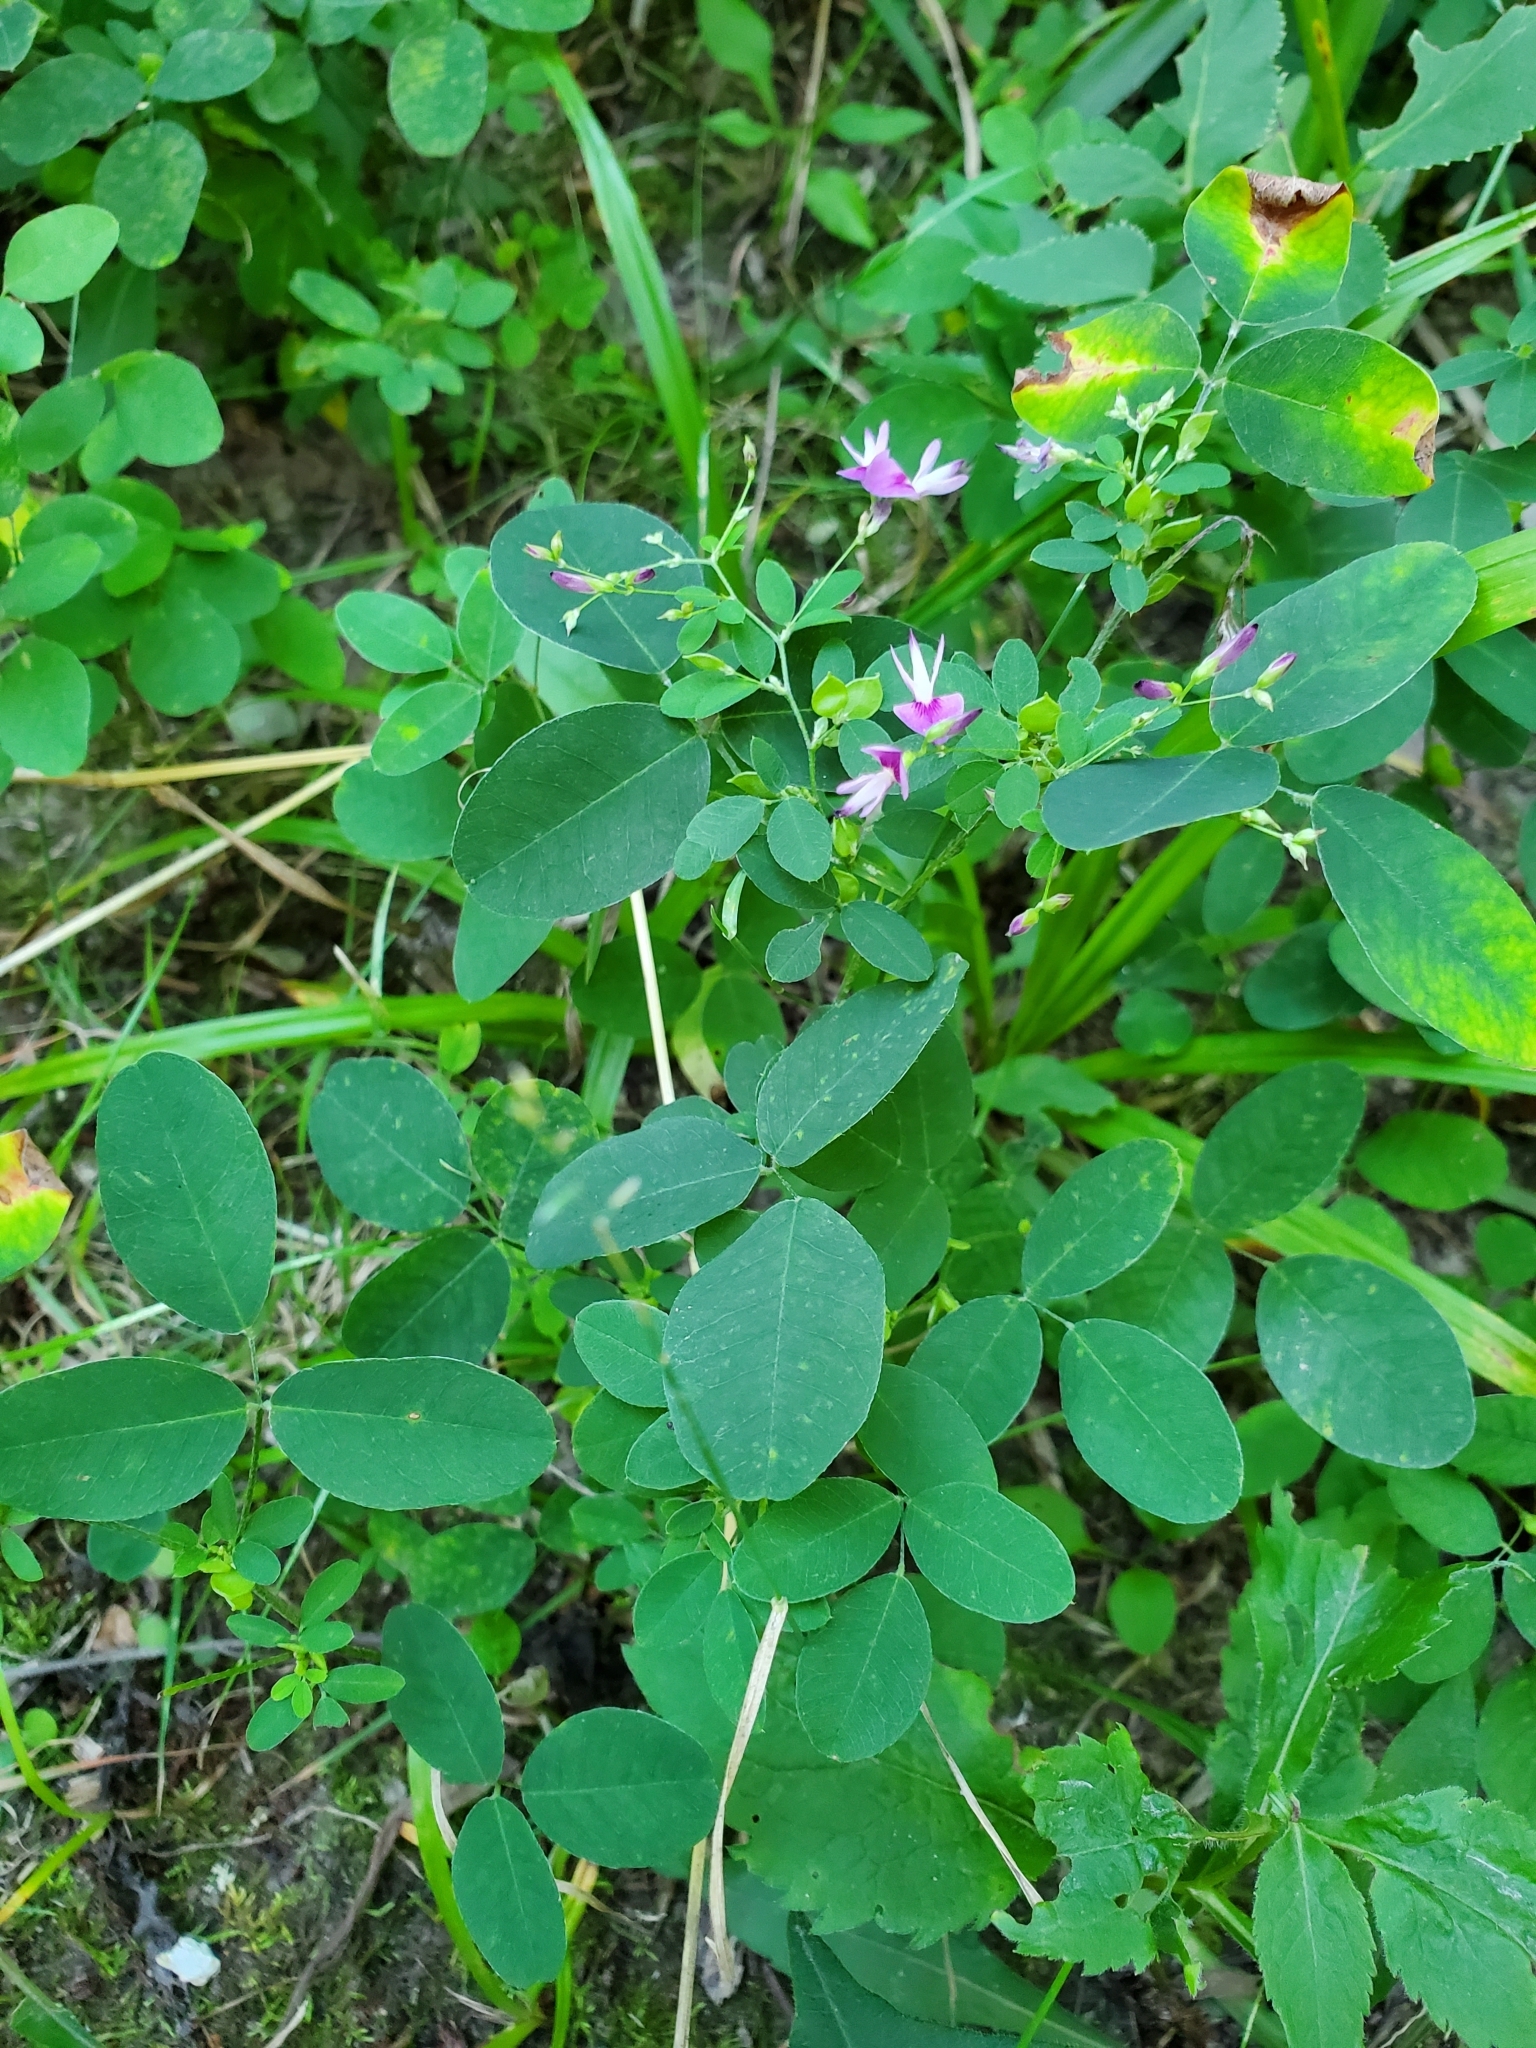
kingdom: Plantae
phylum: Tracheophyta
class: Magnoliopsida
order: Fabales
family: Fabaceae
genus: Lespedeza
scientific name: Lespedeza
